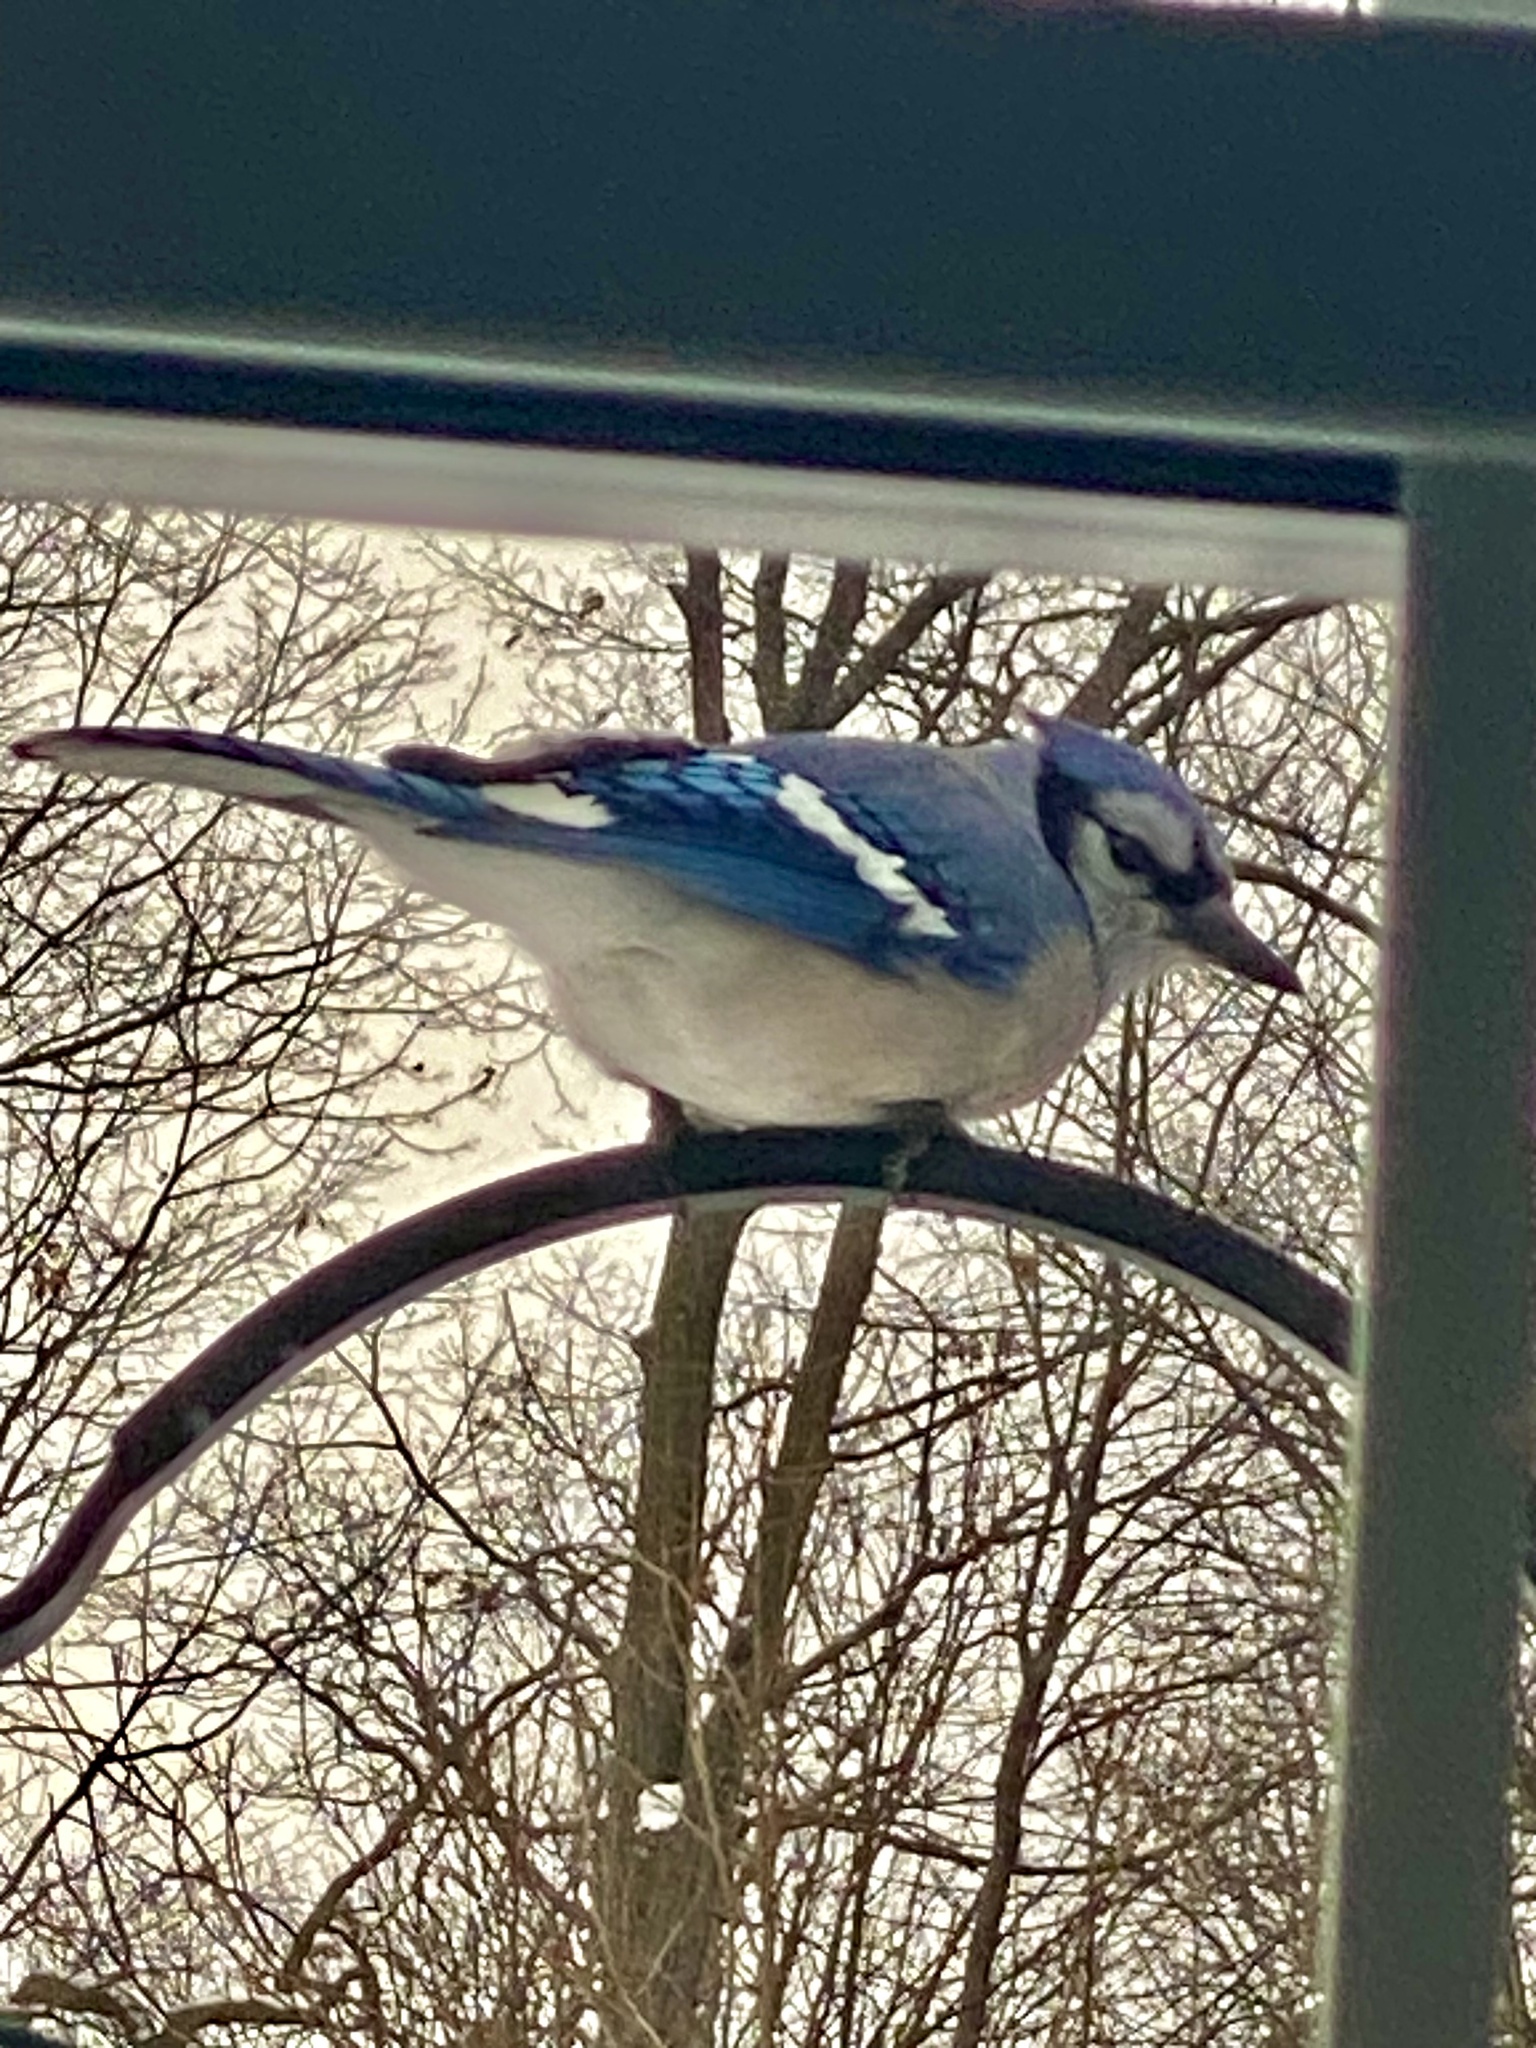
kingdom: Animalia
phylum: Chordata
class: Aves
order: Passeriformes
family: Corvidae
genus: Cyanocitta
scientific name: Cyanocitta cristata
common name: Blue jay
